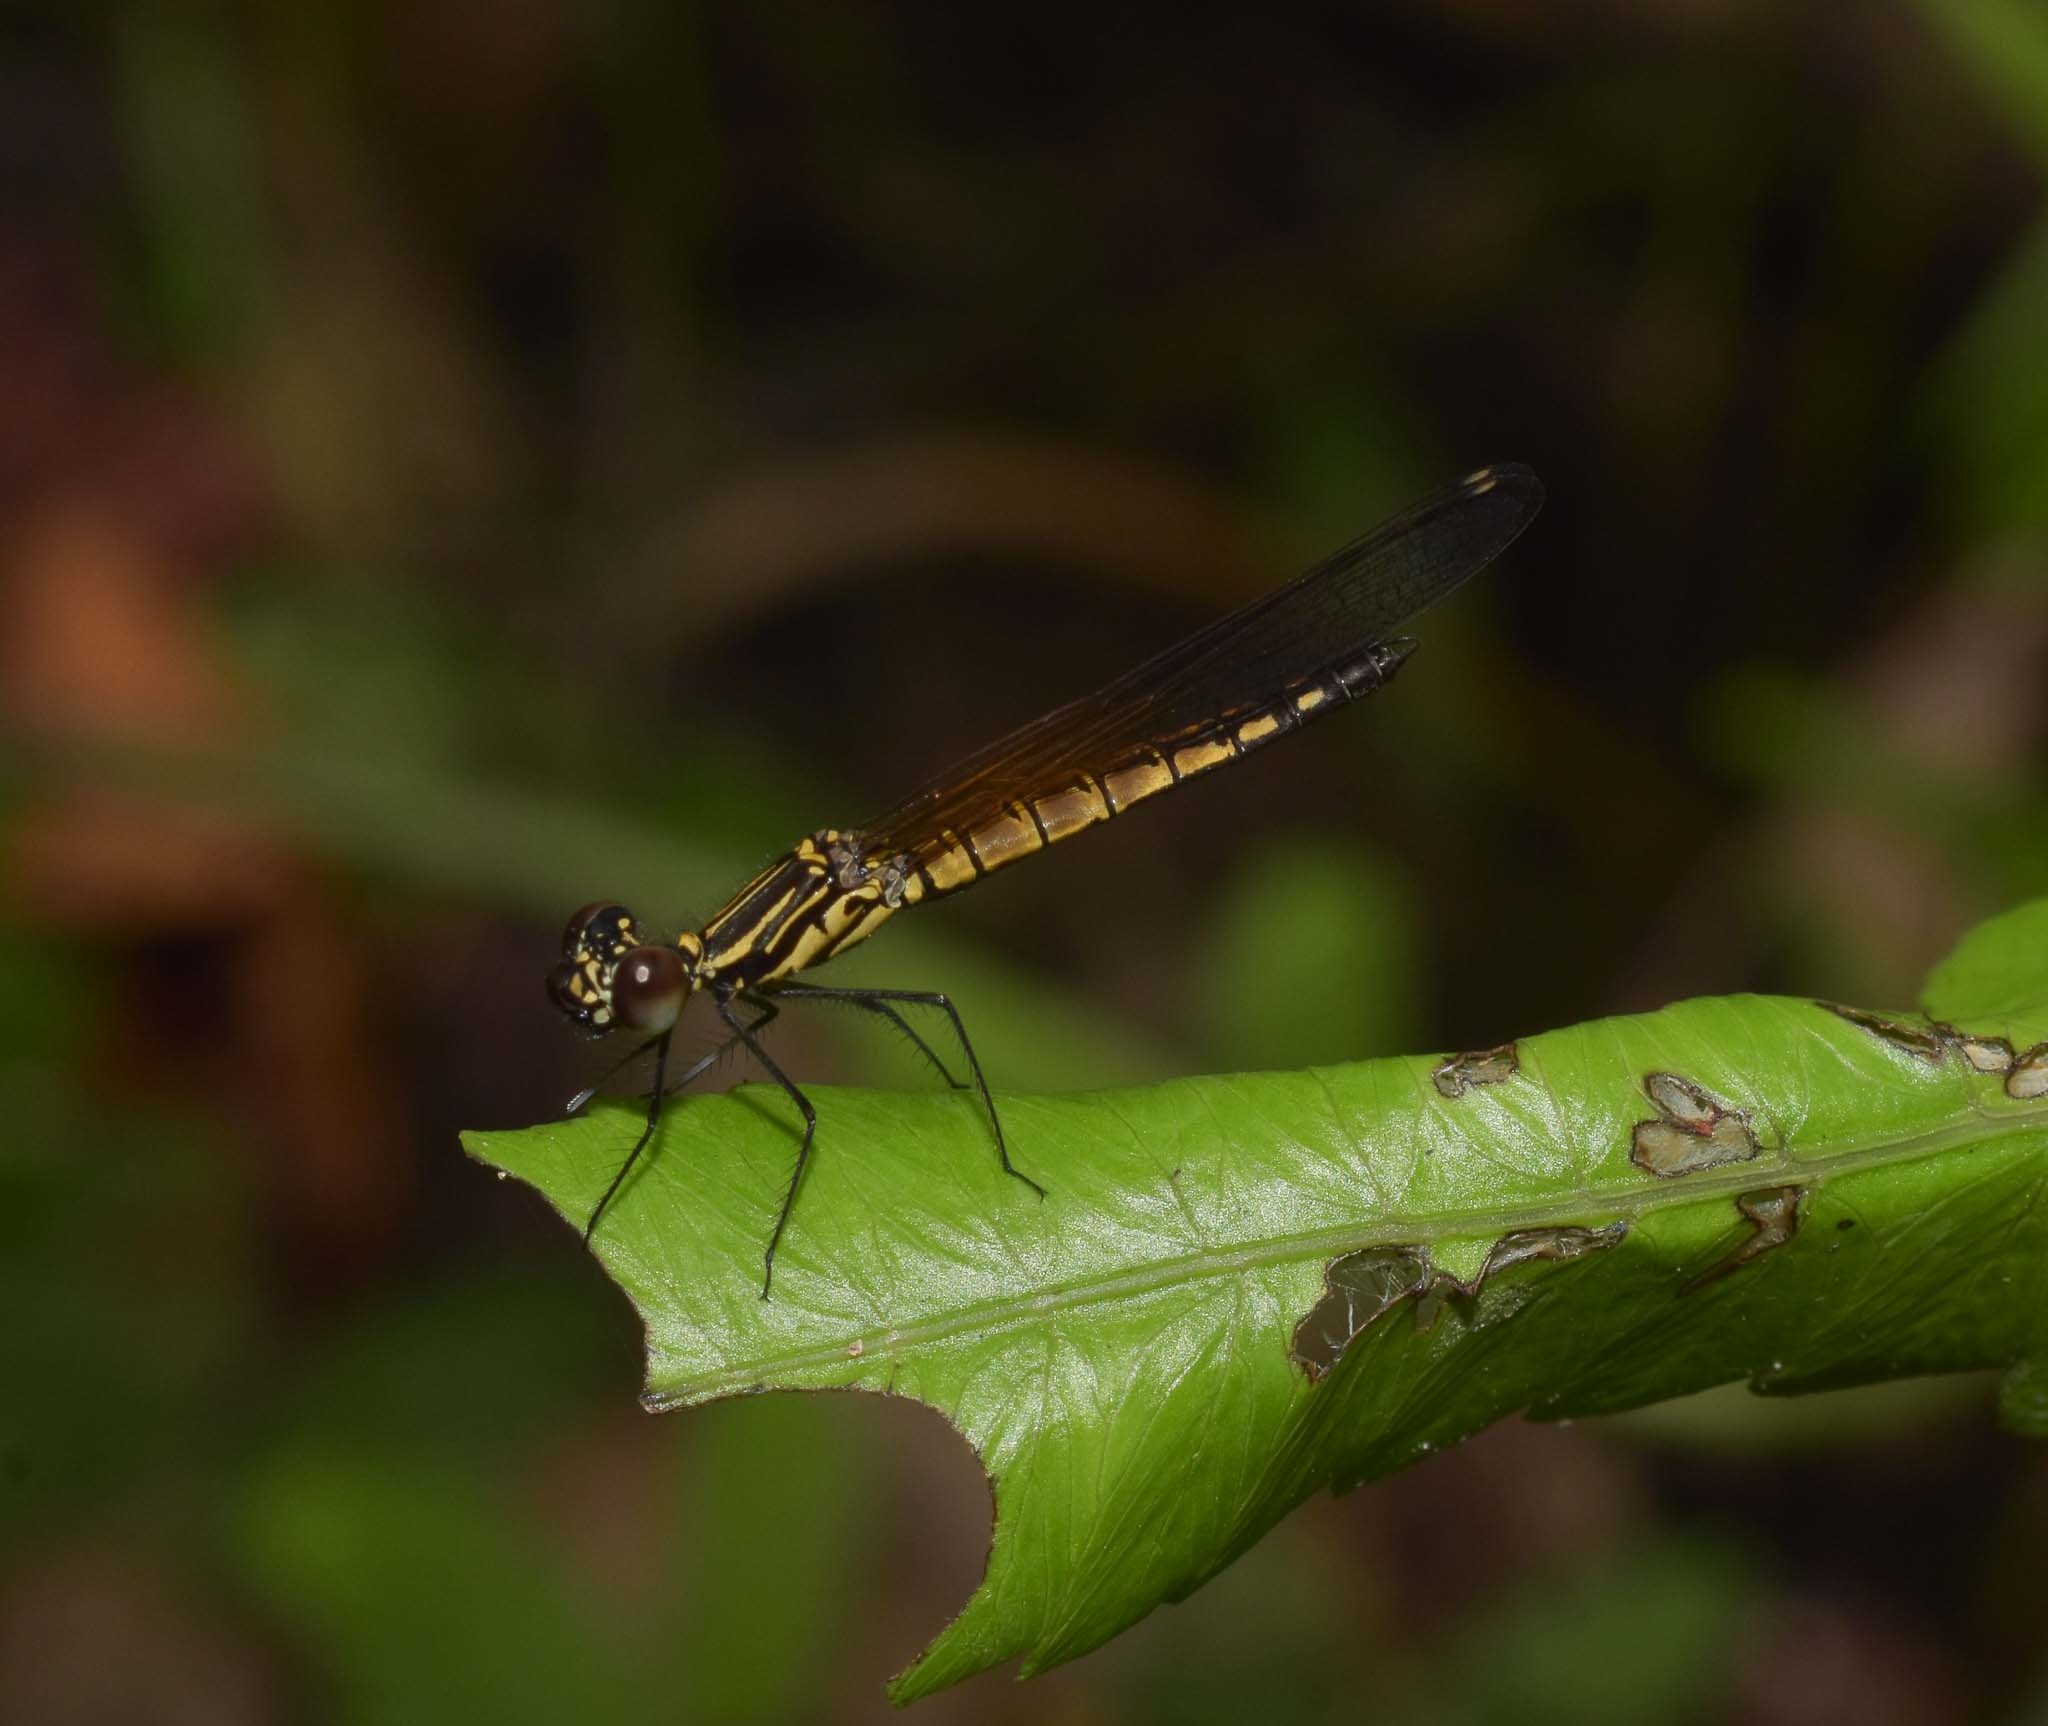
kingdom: Animalia
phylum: Arthropoda
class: Insecta
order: Odonata
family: Chlorocyphidae
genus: Libellago
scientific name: Libellago lineata
